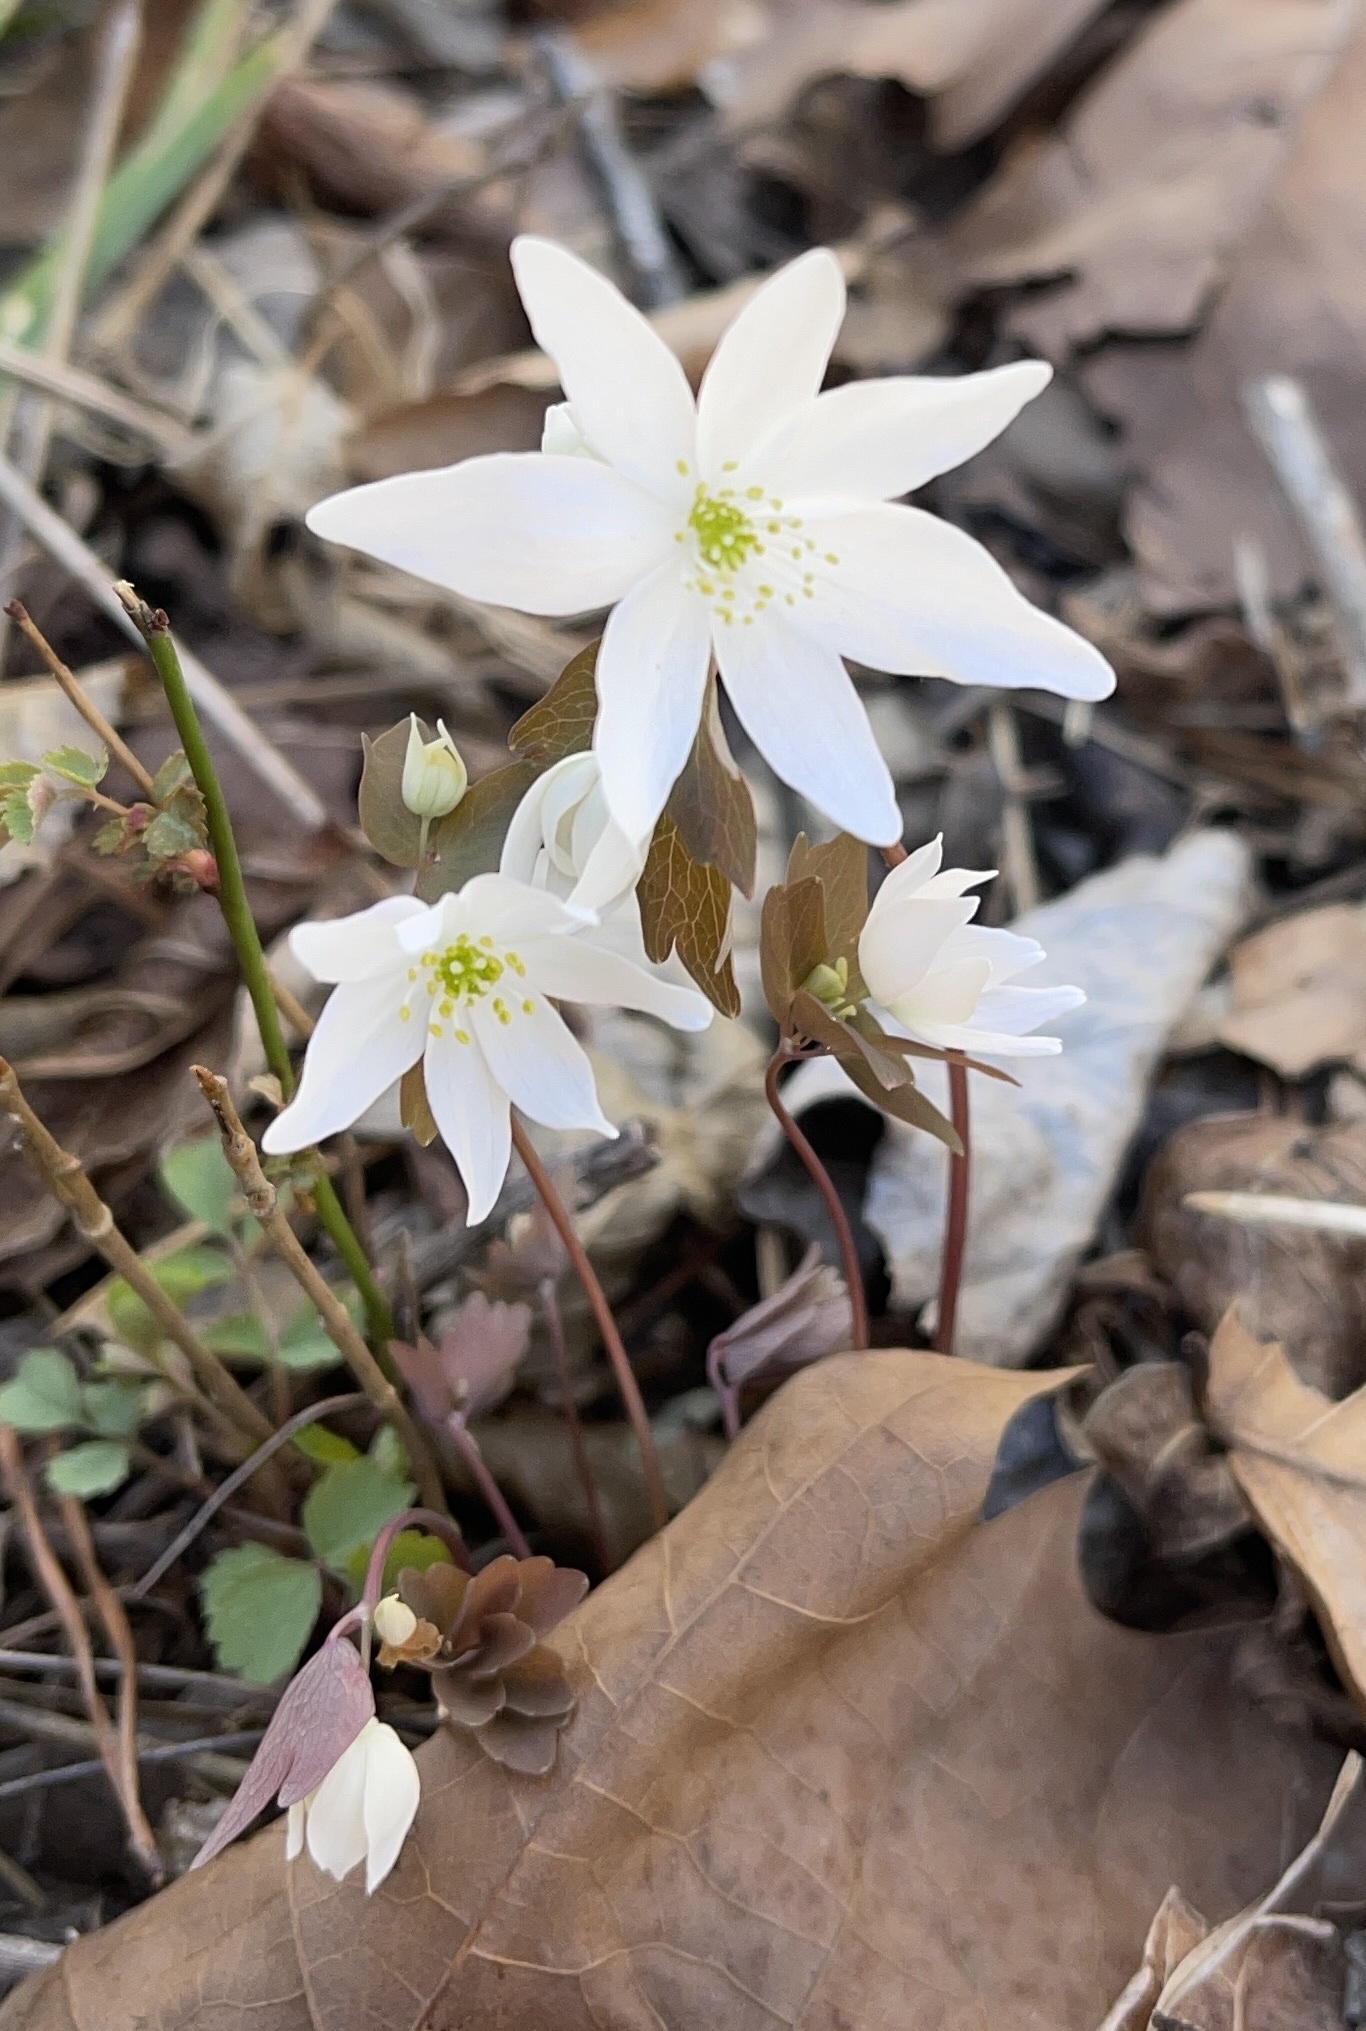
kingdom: Plantae
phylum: Tracheophyta
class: Magnoliopsida
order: Ranunculales
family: Ranunculaceae
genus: Thalictrum
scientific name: Thalictrum thalictroides
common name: Rue-anemone
